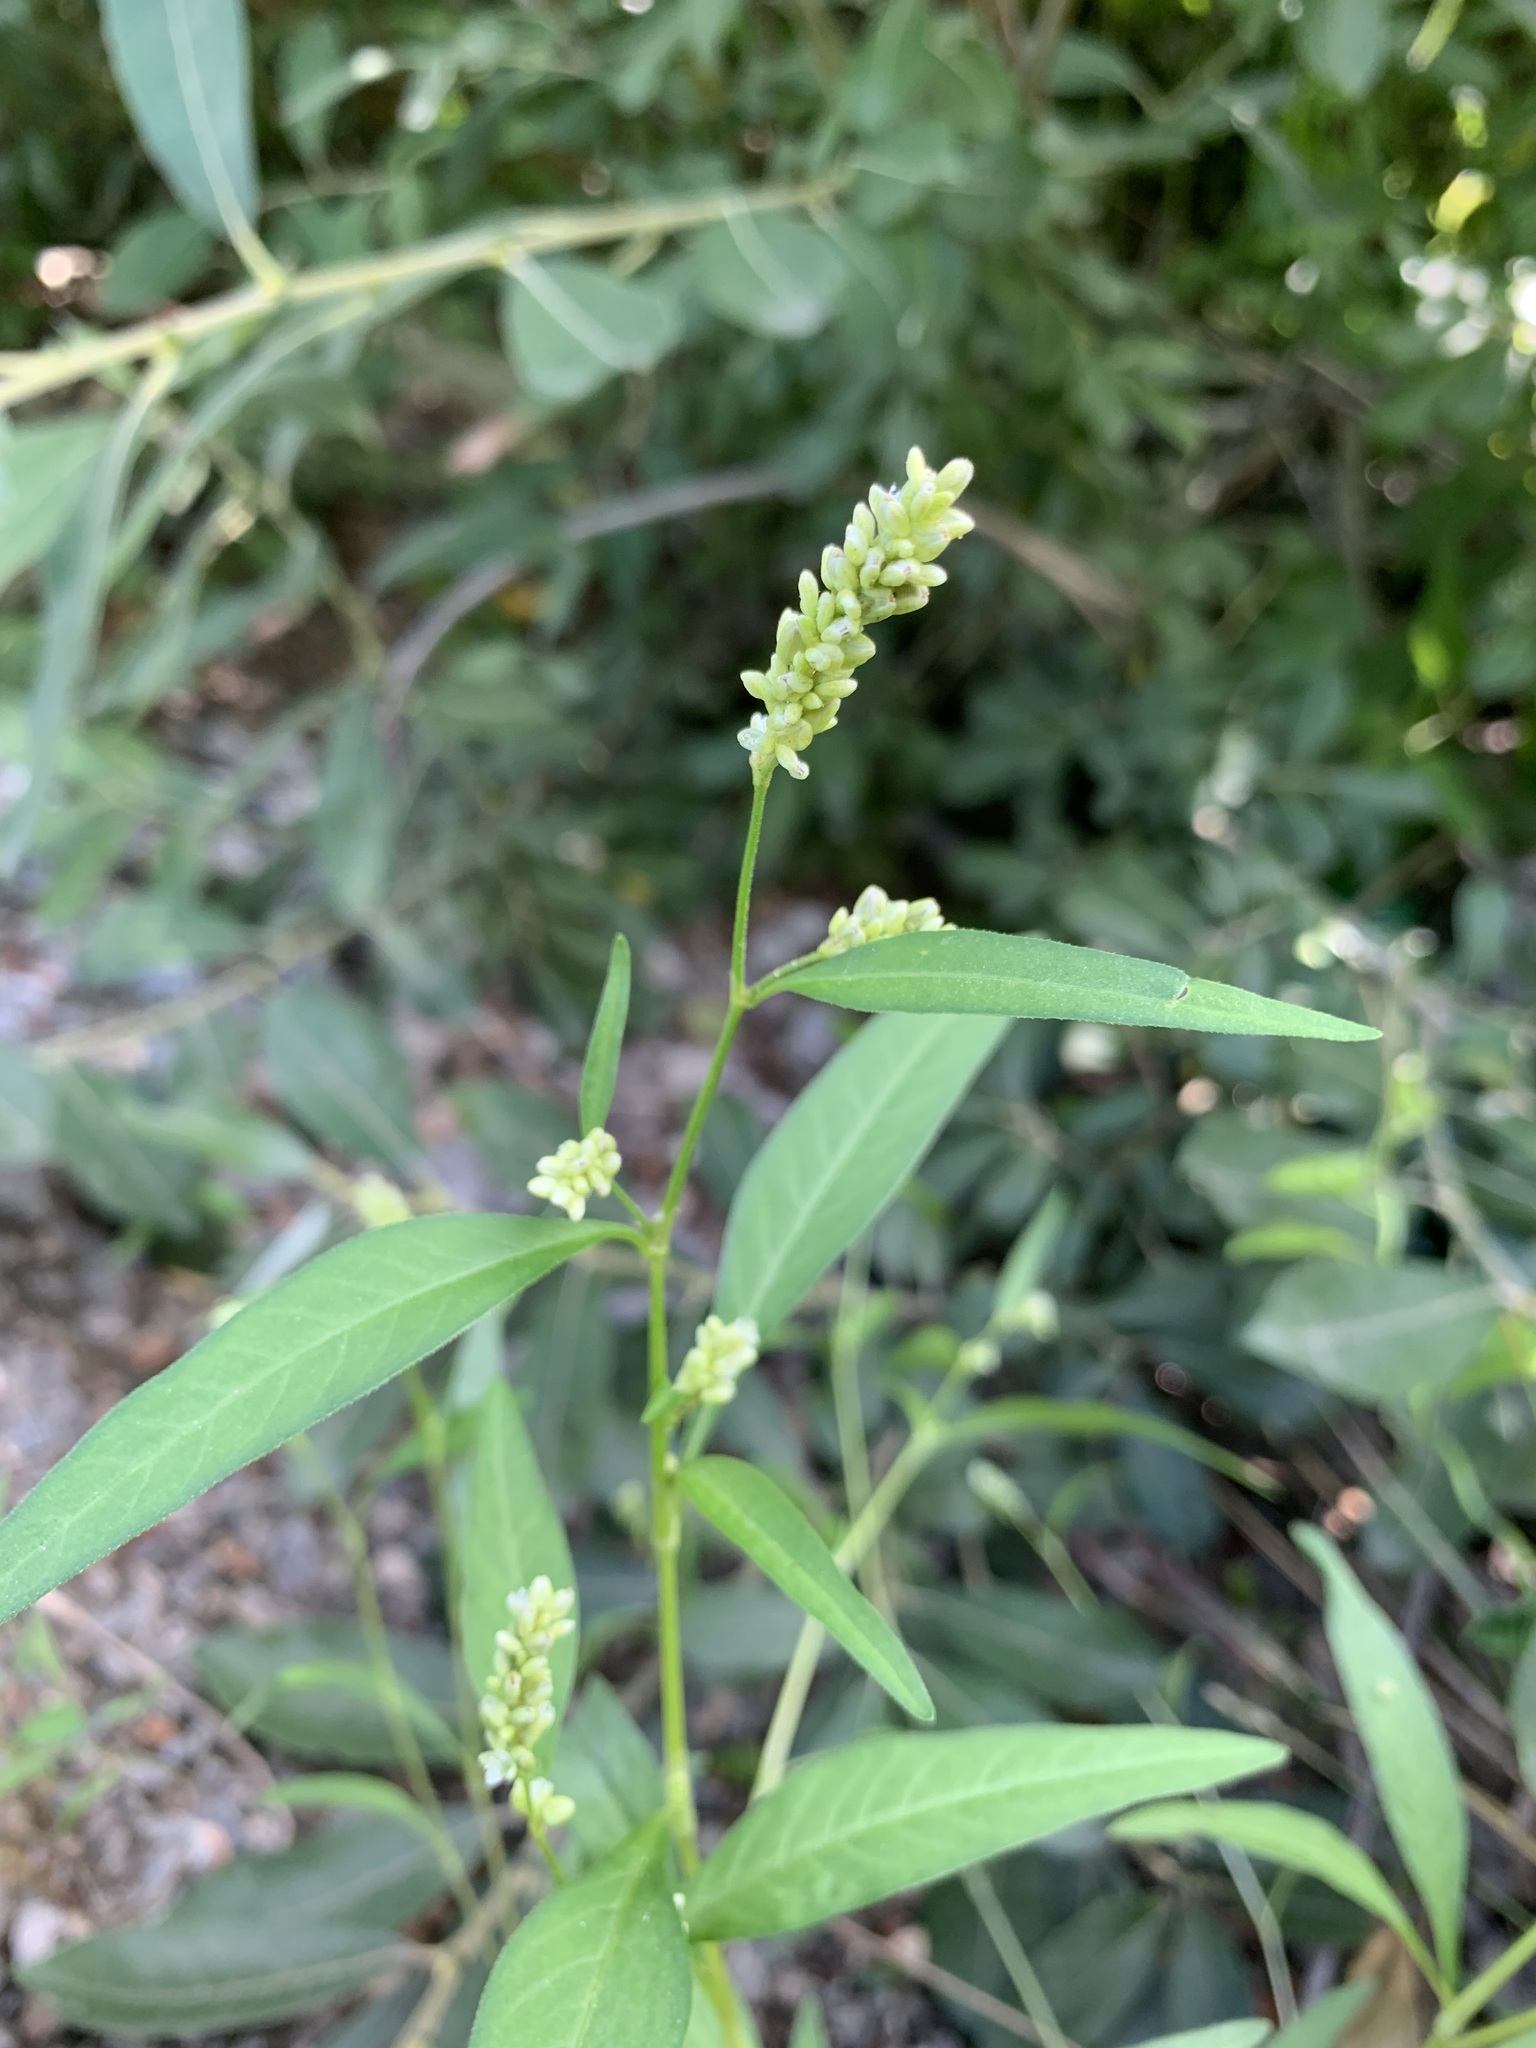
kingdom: Plantae
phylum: Tracheophyta
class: Magnoliopsida
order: Caryophyllales
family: Polygonaceae
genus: Persicaria
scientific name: Persicaria lapathifolia
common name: Curlytop knotweed
